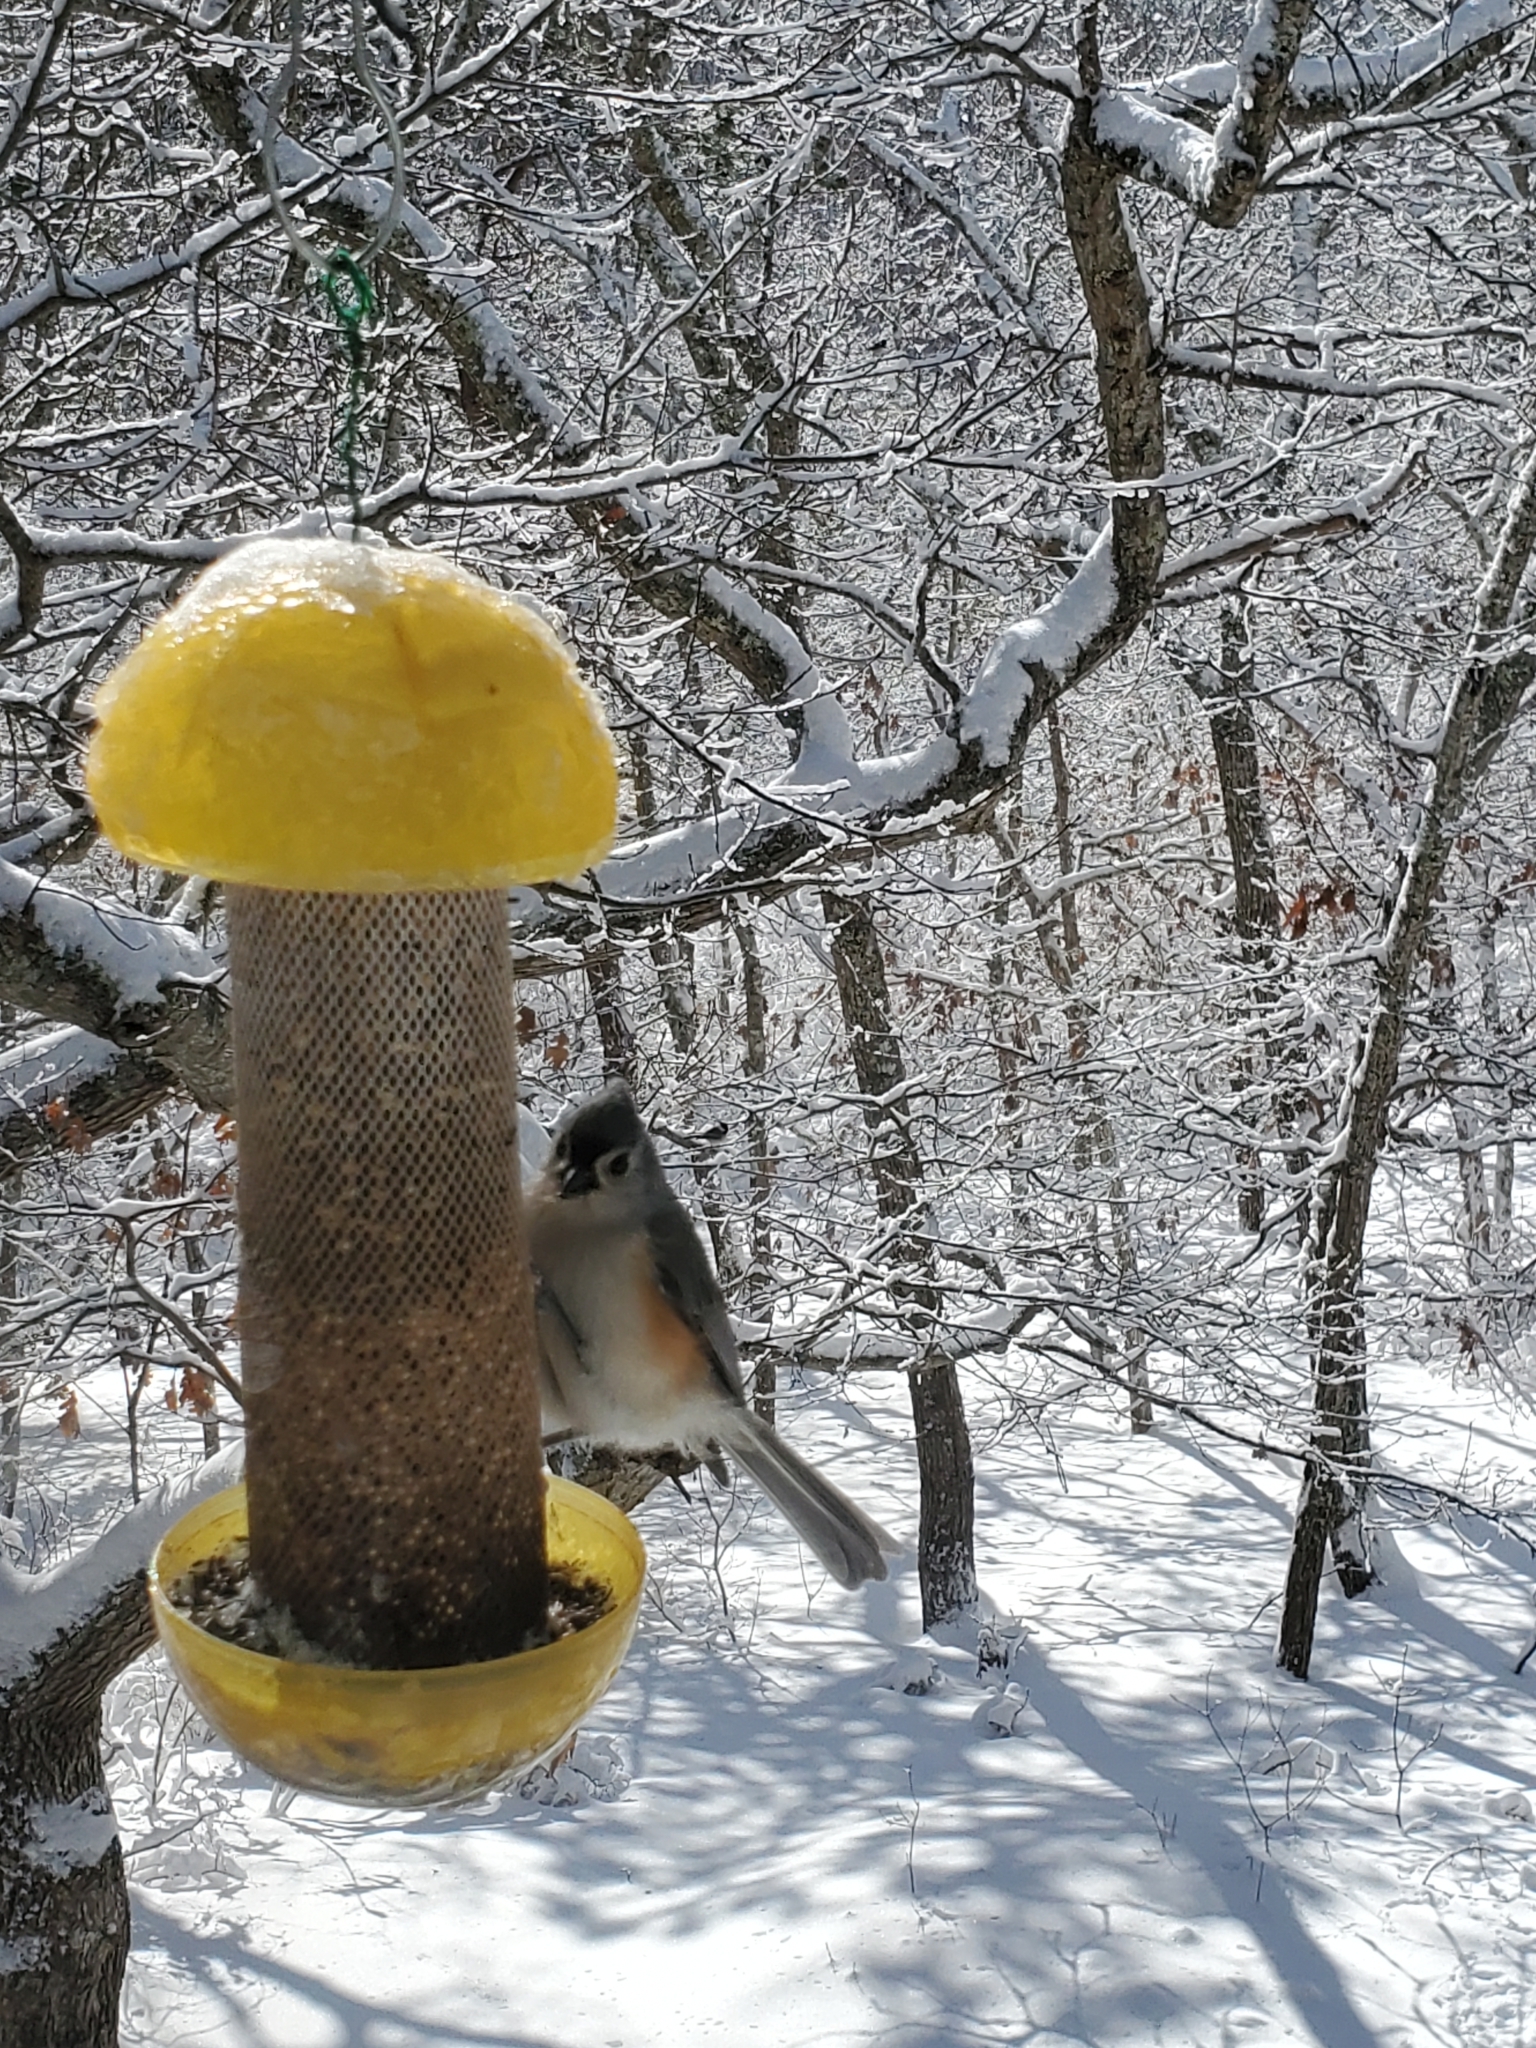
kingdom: Animalia
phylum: Chordata
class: Aves
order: Passeriformes
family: Paridae
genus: Baeolophus
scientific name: Baeolophus bicolor
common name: Tufted titmouse
